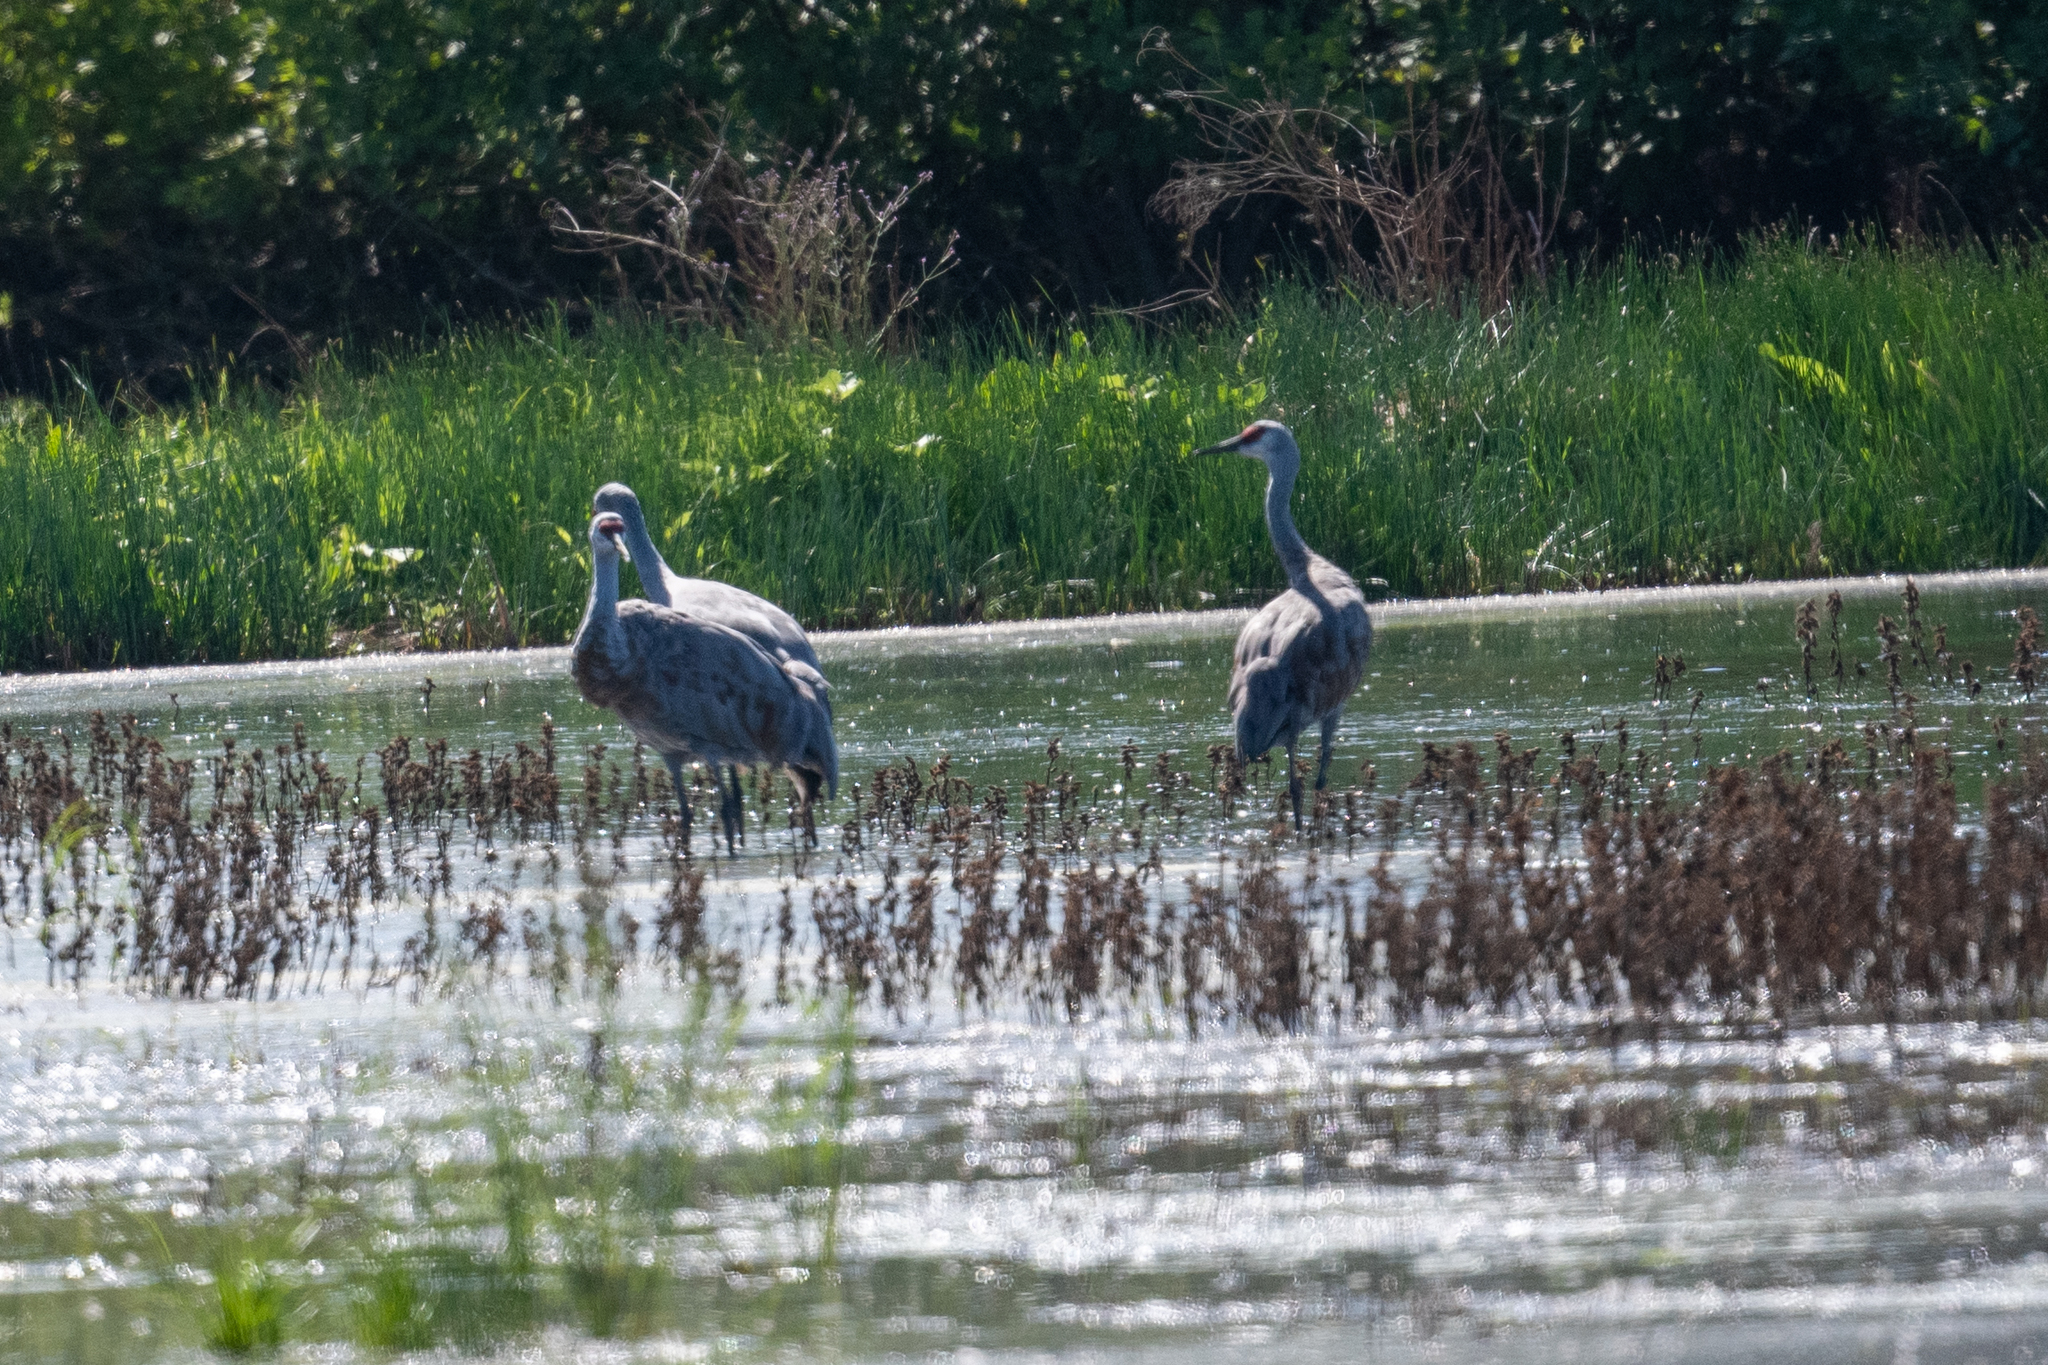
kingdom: Animalia
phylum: Chordata
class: Aves
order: Gruiformes
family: Gruidae
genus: Grus
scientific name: Grus canadensis
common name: Sandhill crane
